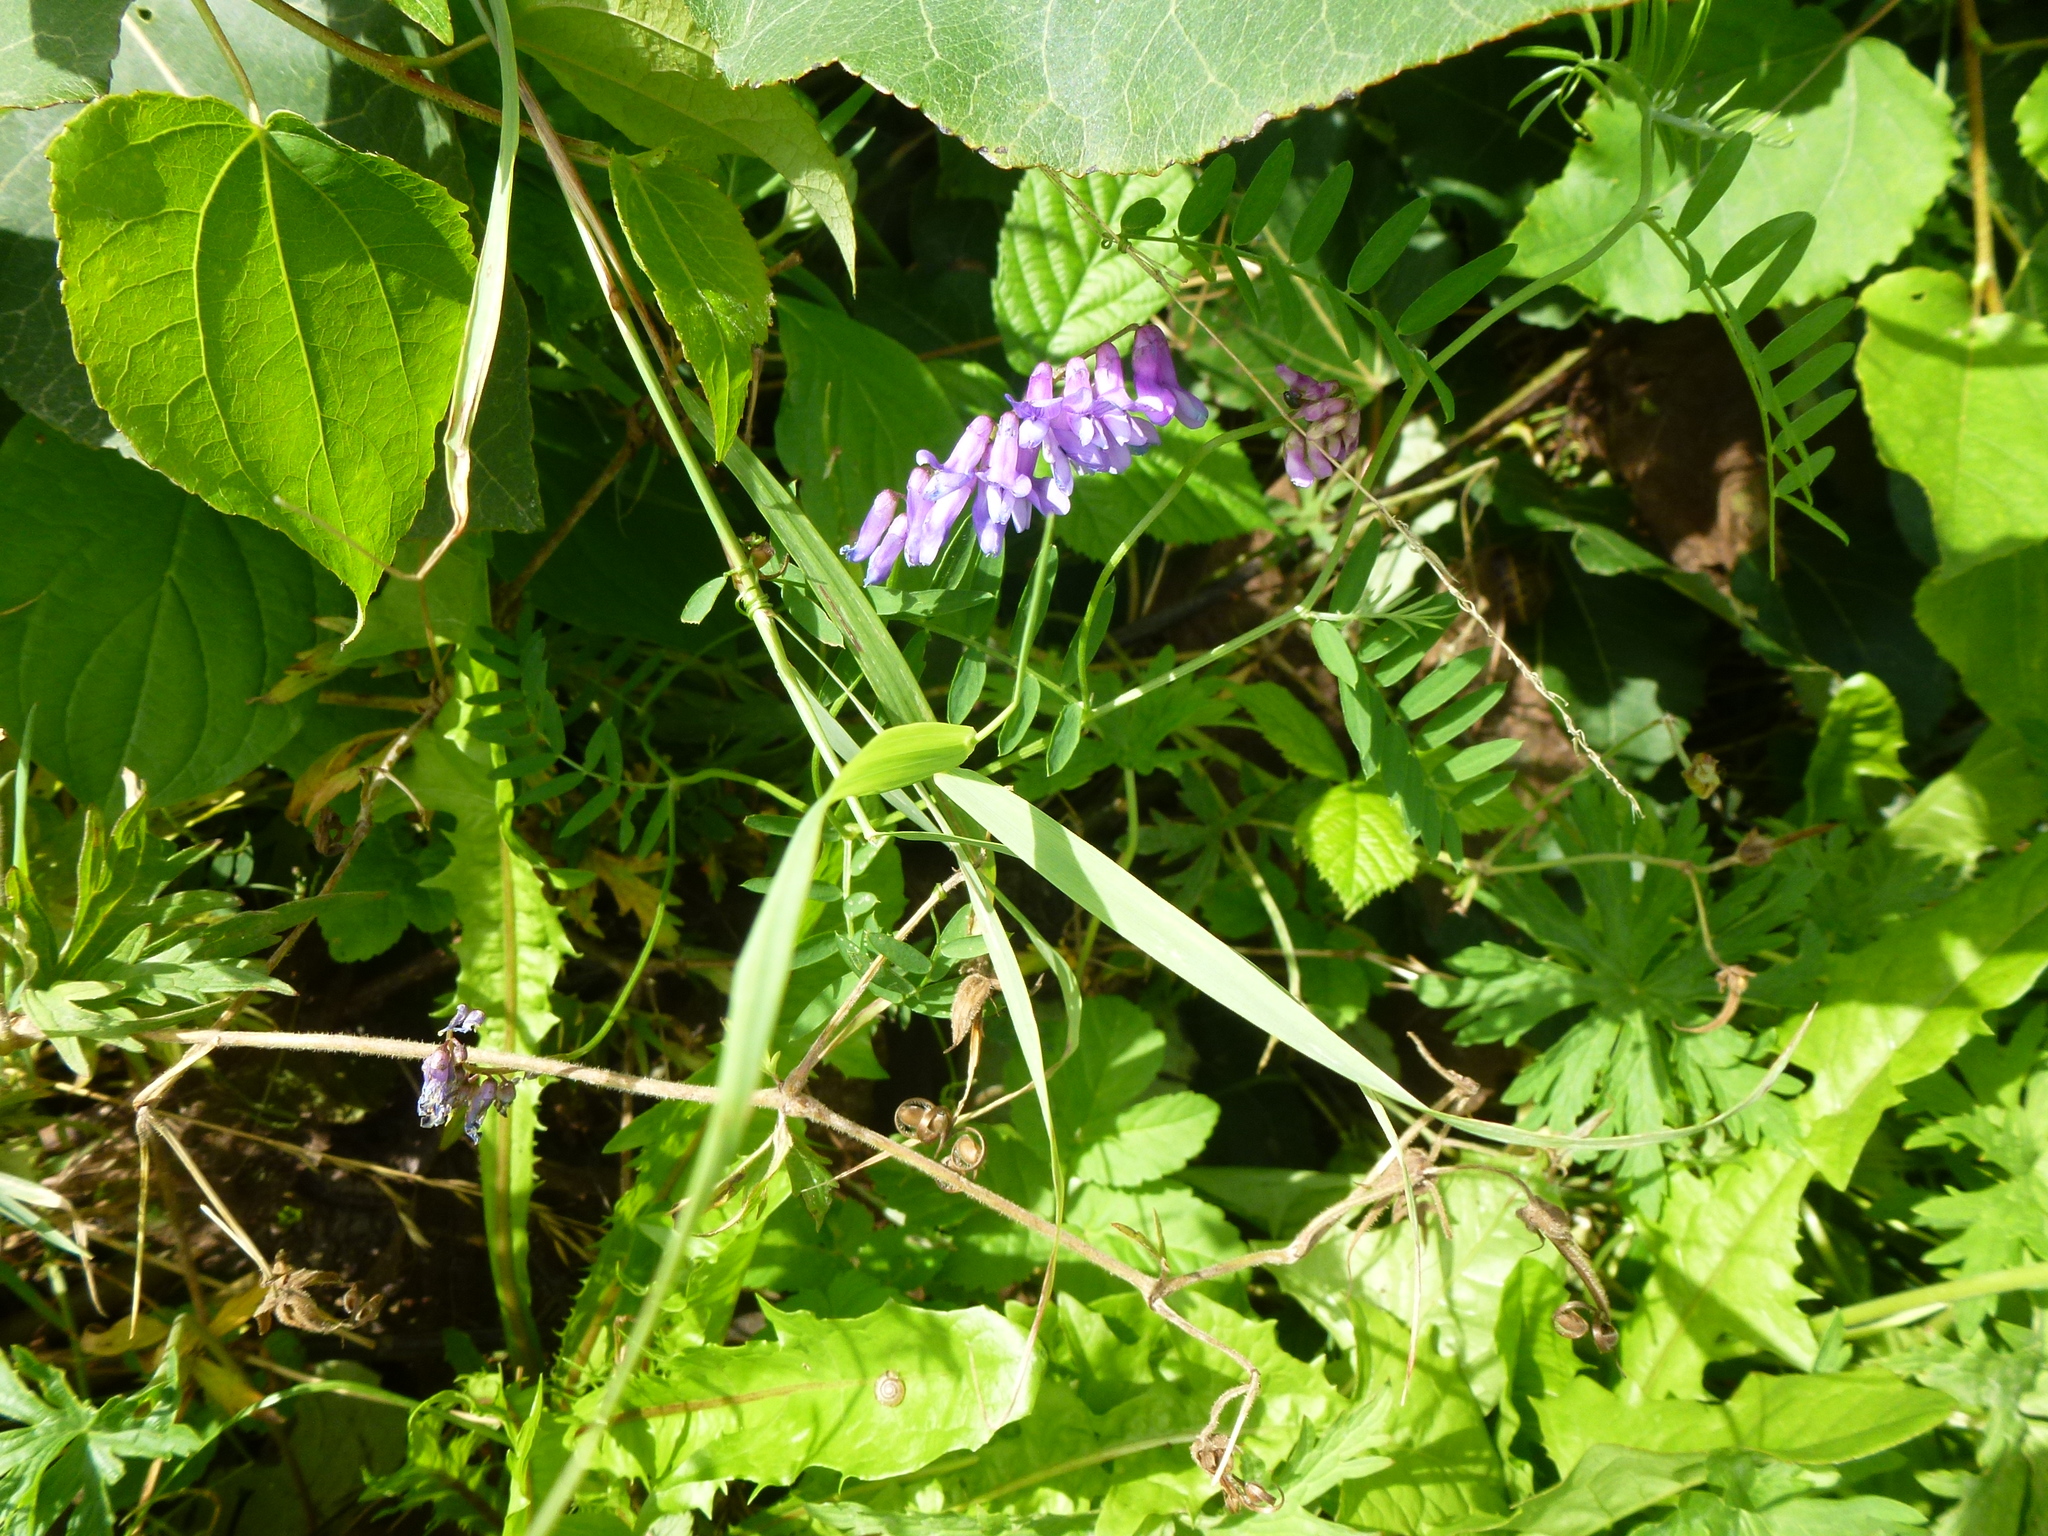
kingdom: Plantae
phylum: Tracheophyta
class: Magnoliopsida
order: Fabales
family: Fabaceae
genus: Vicia
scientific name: Vicia cracca
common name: Bird vetch
